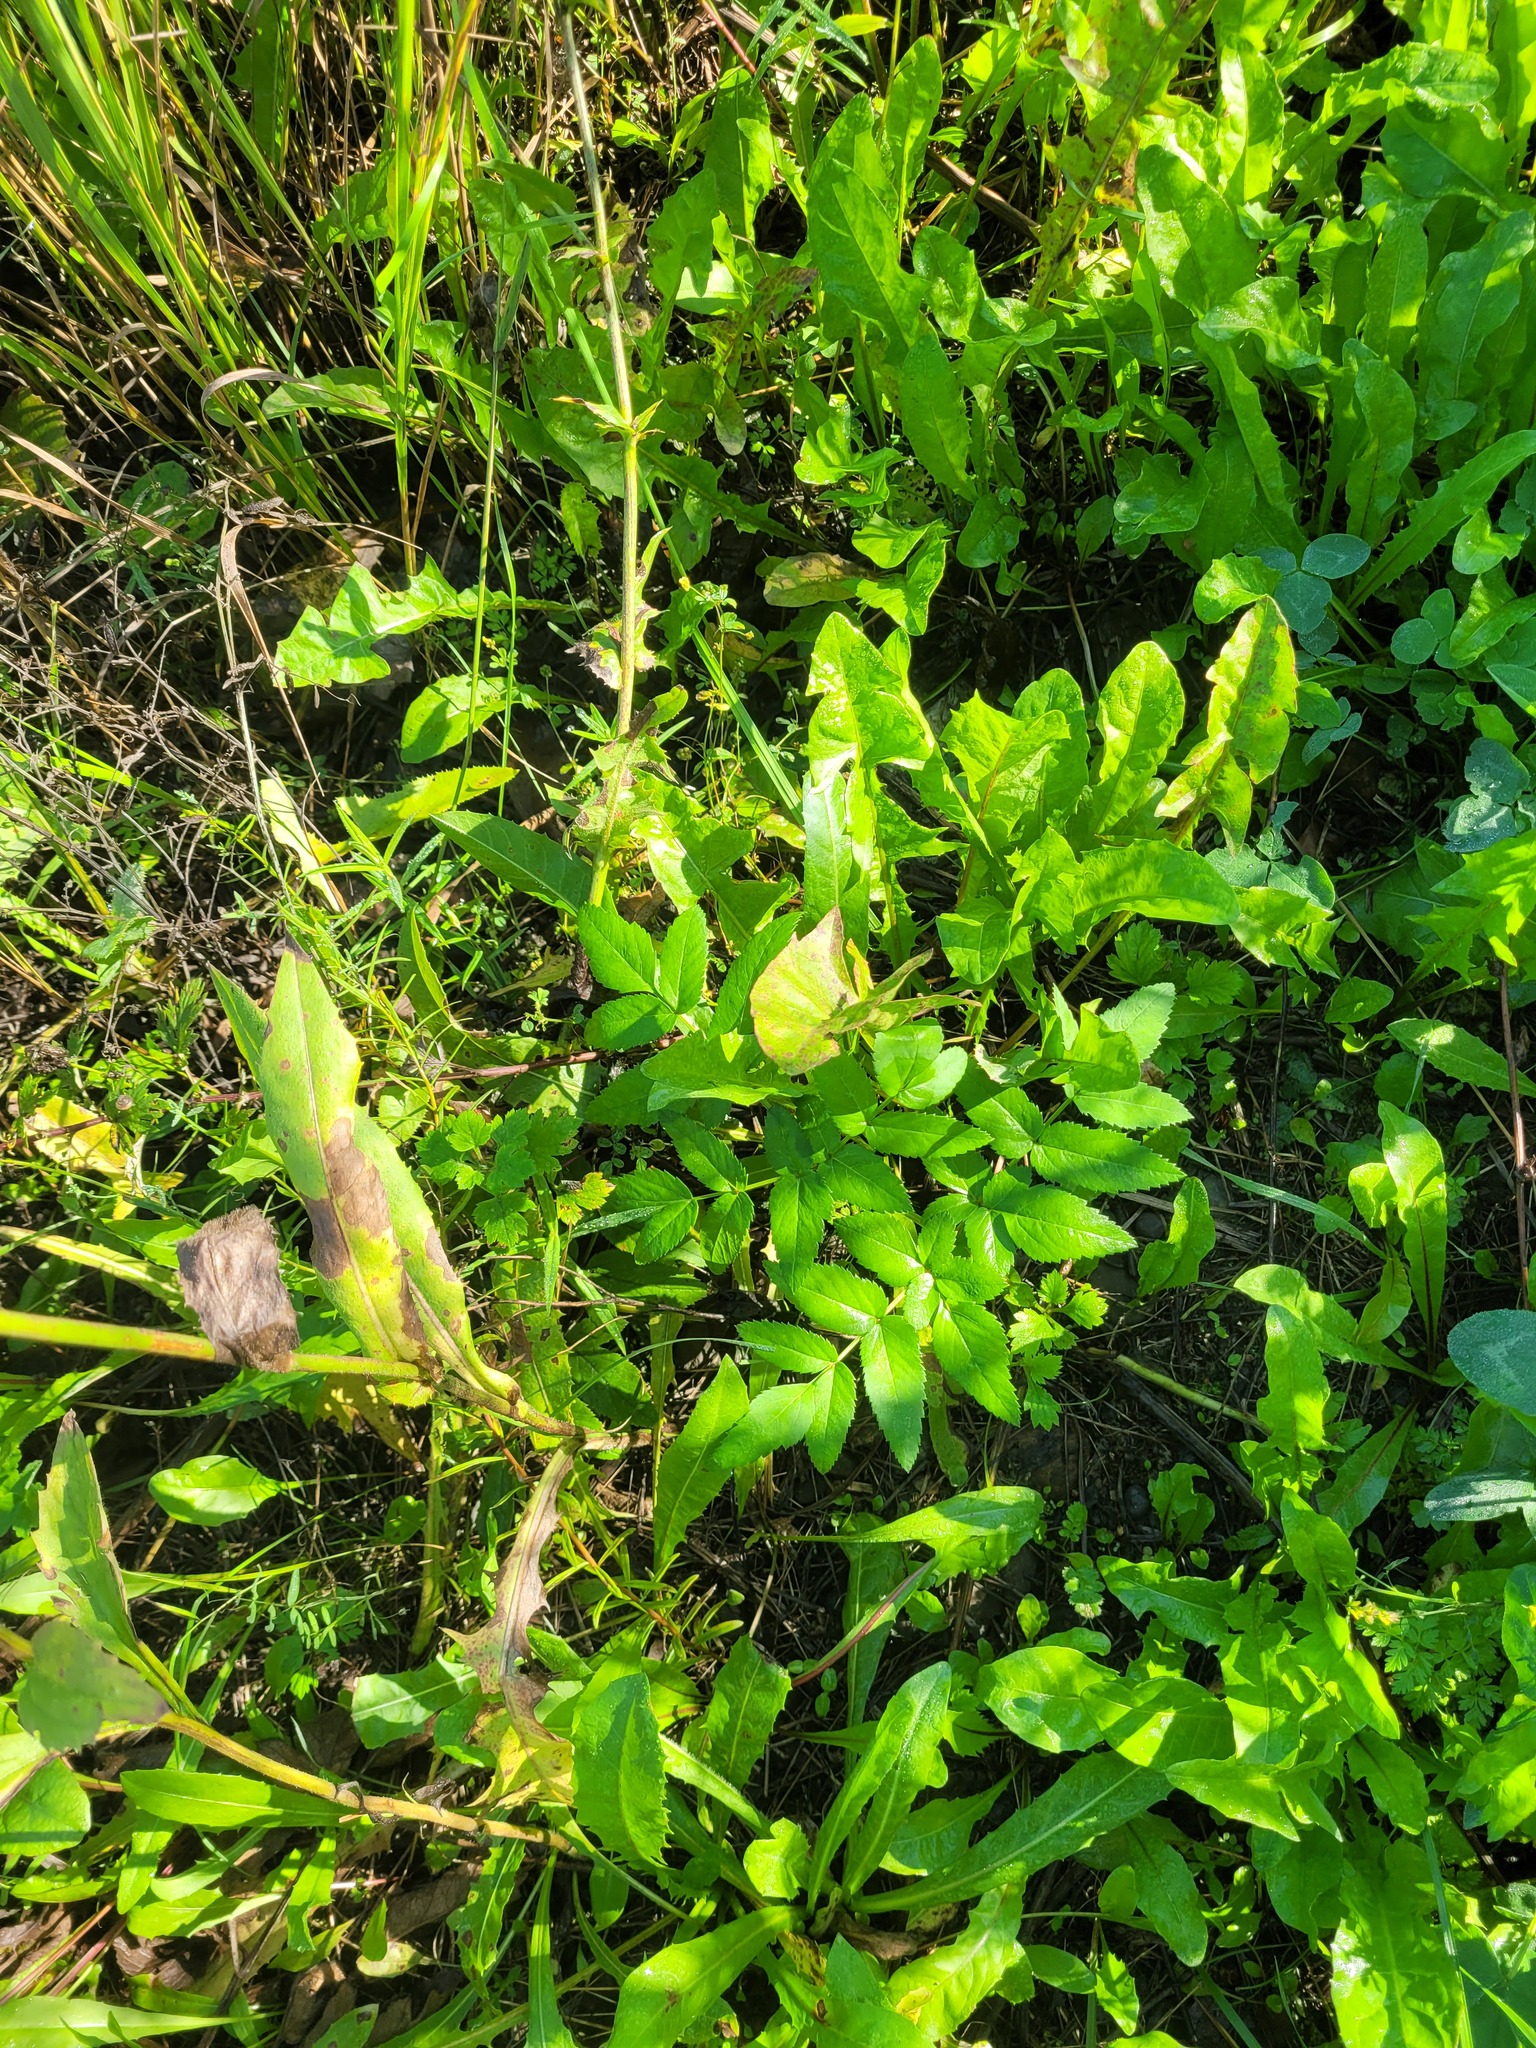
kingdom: Plantae
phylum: Tracheophyta
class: Magnoliopsida
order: Apiales
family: Apiaceae
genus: Angelica
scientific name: Angelica sylvestris
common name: Wild angelica
